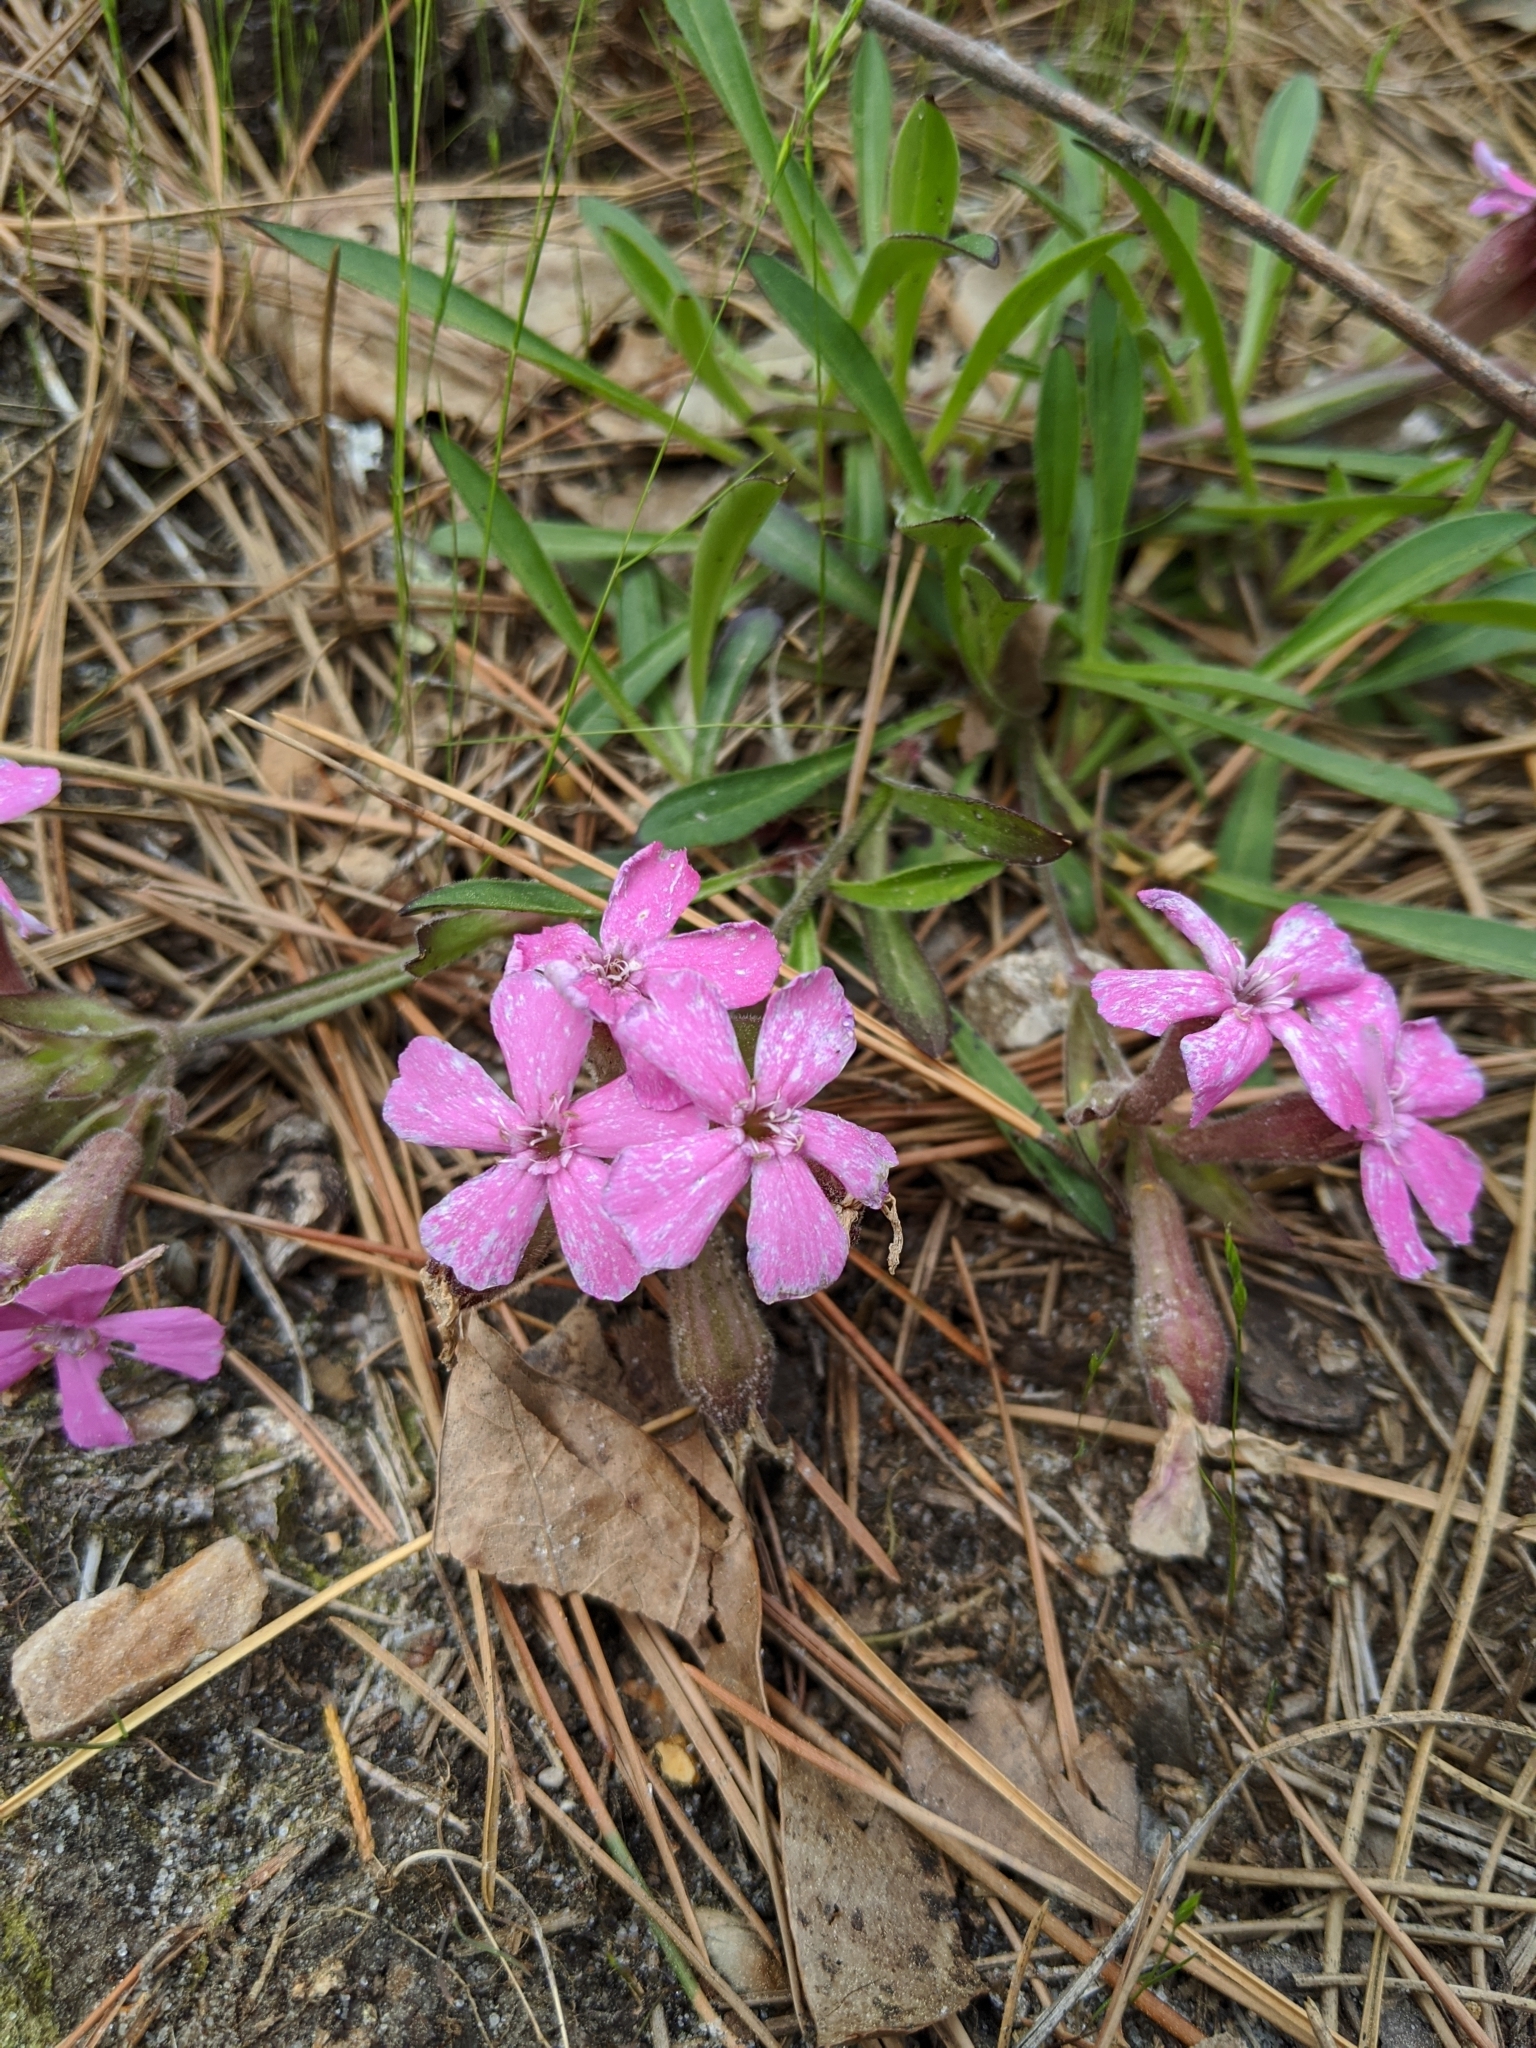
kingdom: Plantae
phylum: Tracheophyta
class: Magnoliopsida
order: Caryophyllales
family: Caryophyllaceae
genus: Silene
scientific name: Silene caroliniana
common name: Sticky catchfly
